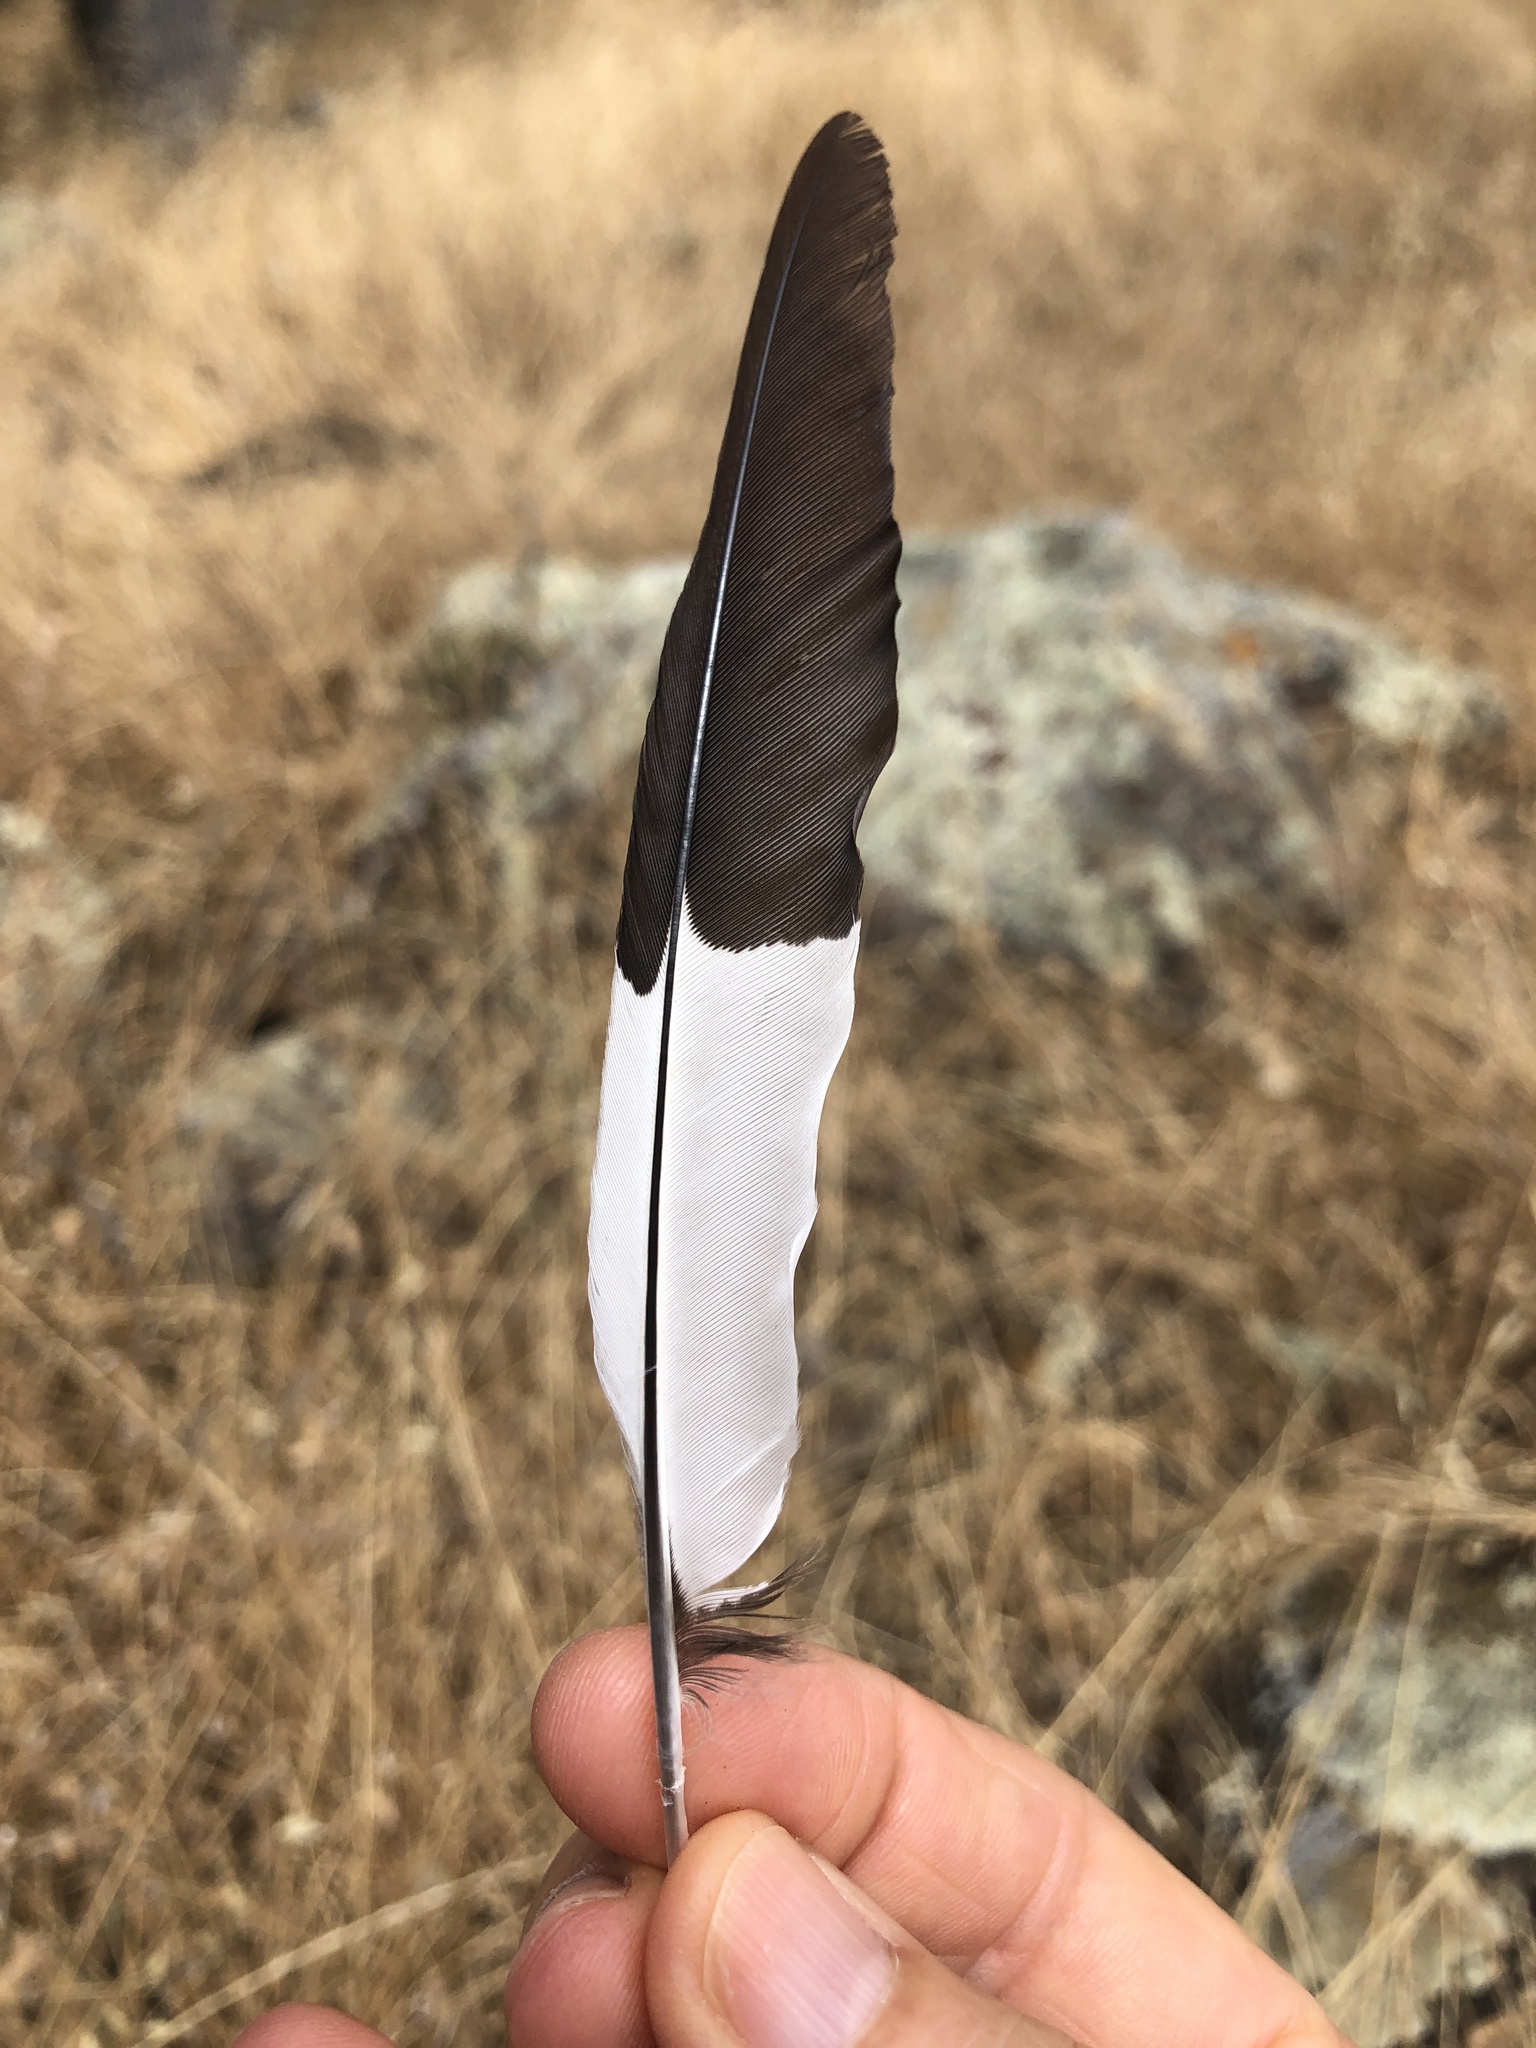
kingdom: Animalia
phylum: Chordata
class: Aves
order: Piciformes
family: Picidae
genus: Melanerpes
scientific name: Melanerpes formicivorus
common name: Acorn woodpecker
